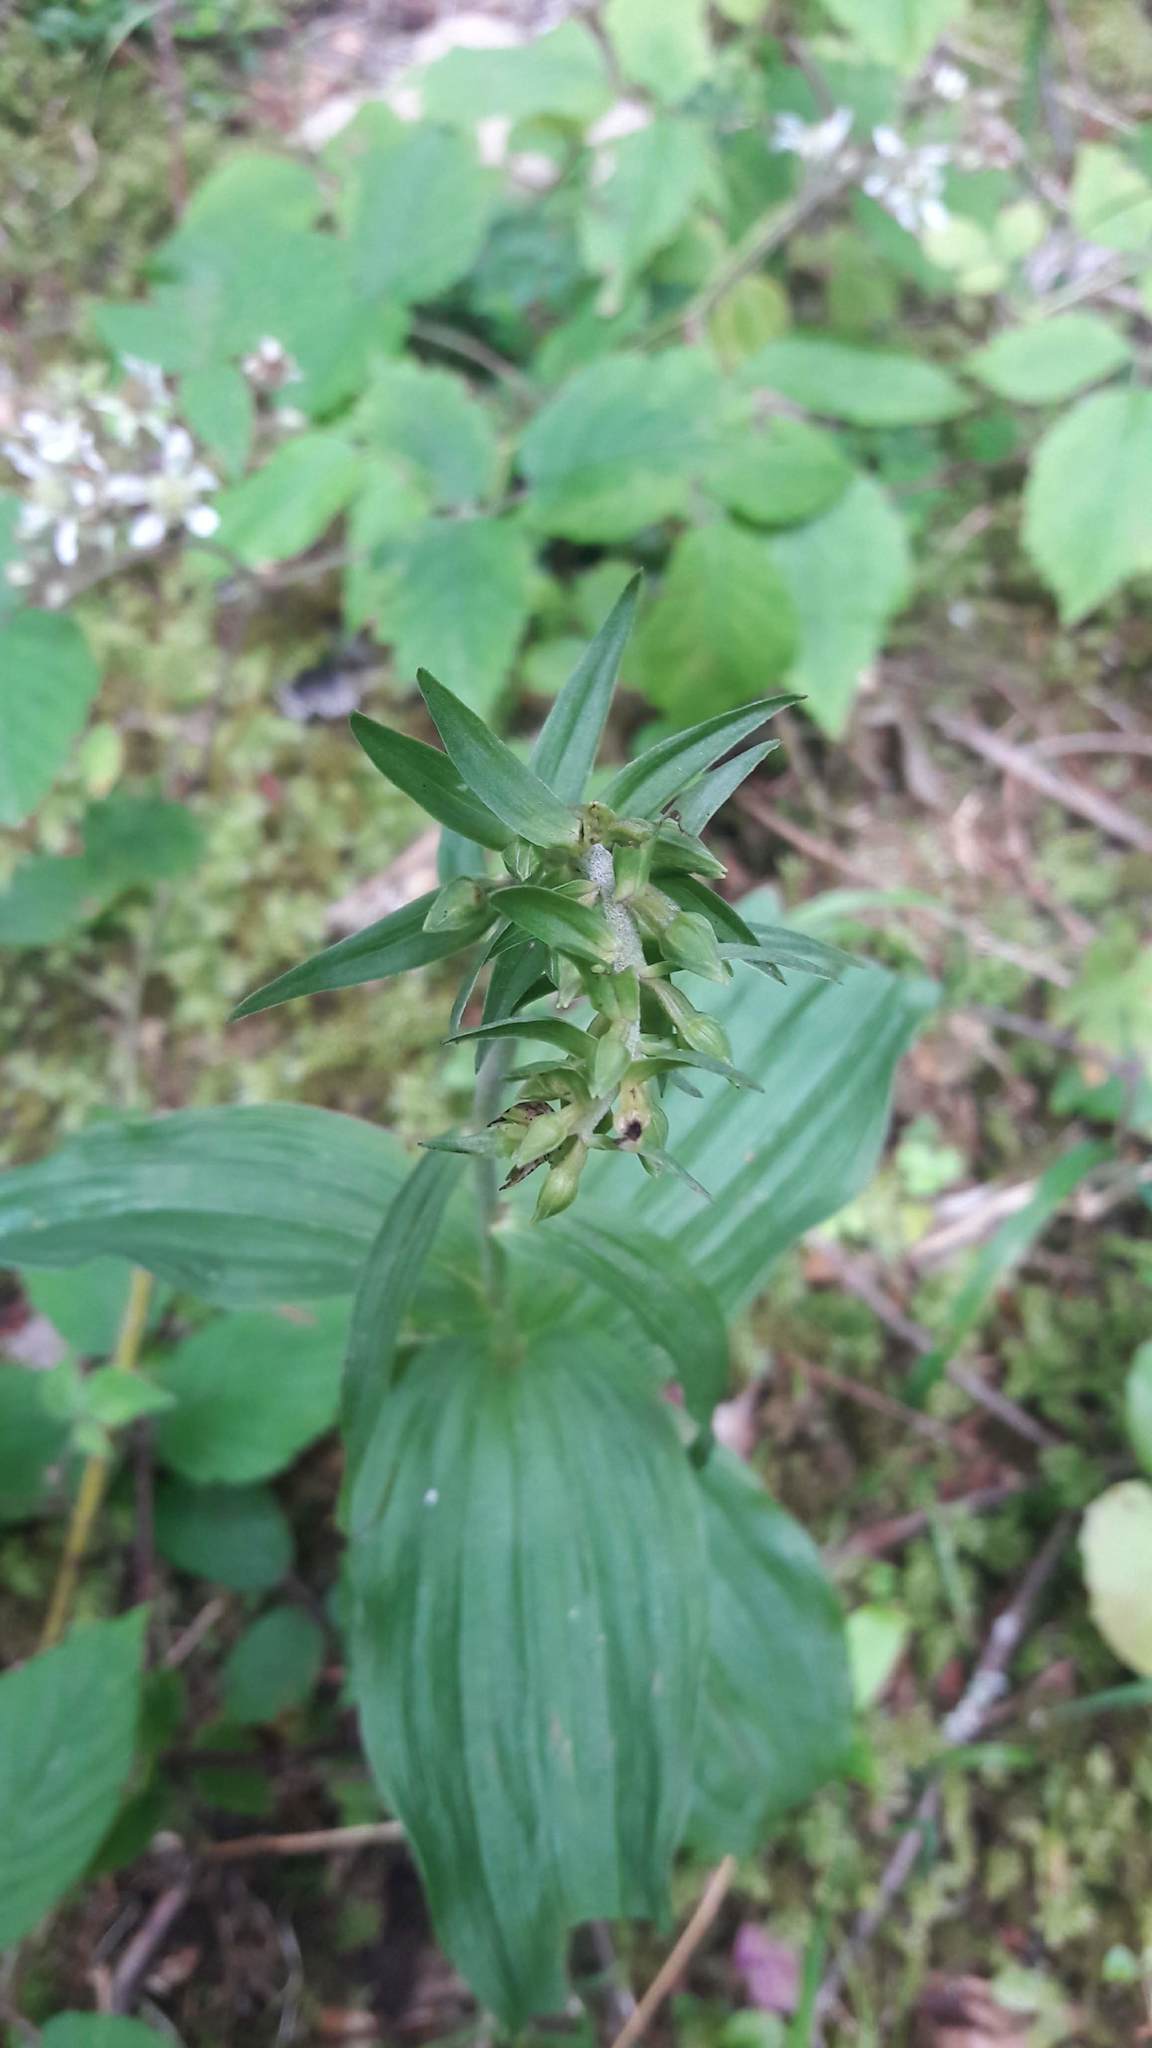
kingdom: Plantae
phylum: Tracheophyta
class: Liliopsida
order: Asparagales
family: Orchidaceae
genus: Epipactis
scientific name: Epipactis helleborine
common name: Broad-leaved helleborine
